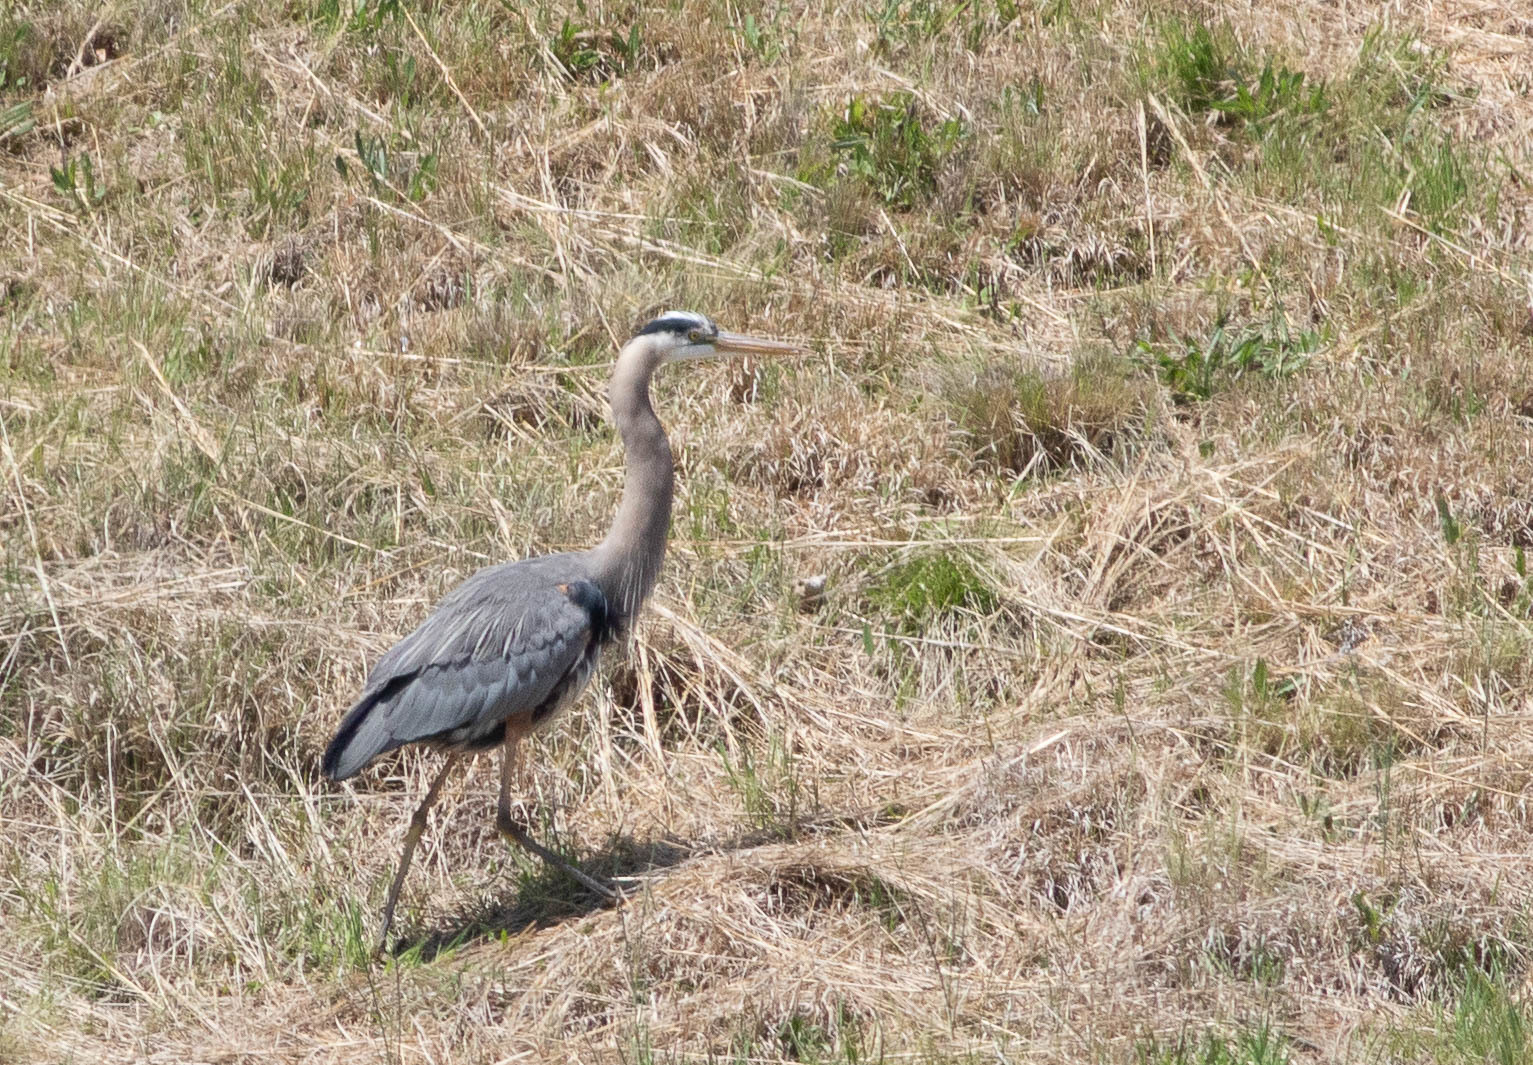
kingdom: Animalia
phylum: Chordata
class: Aves
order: Pelecaniformes
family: Ardeidae
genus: Ardea
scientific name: Ardea herodias
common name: Great blue heron
